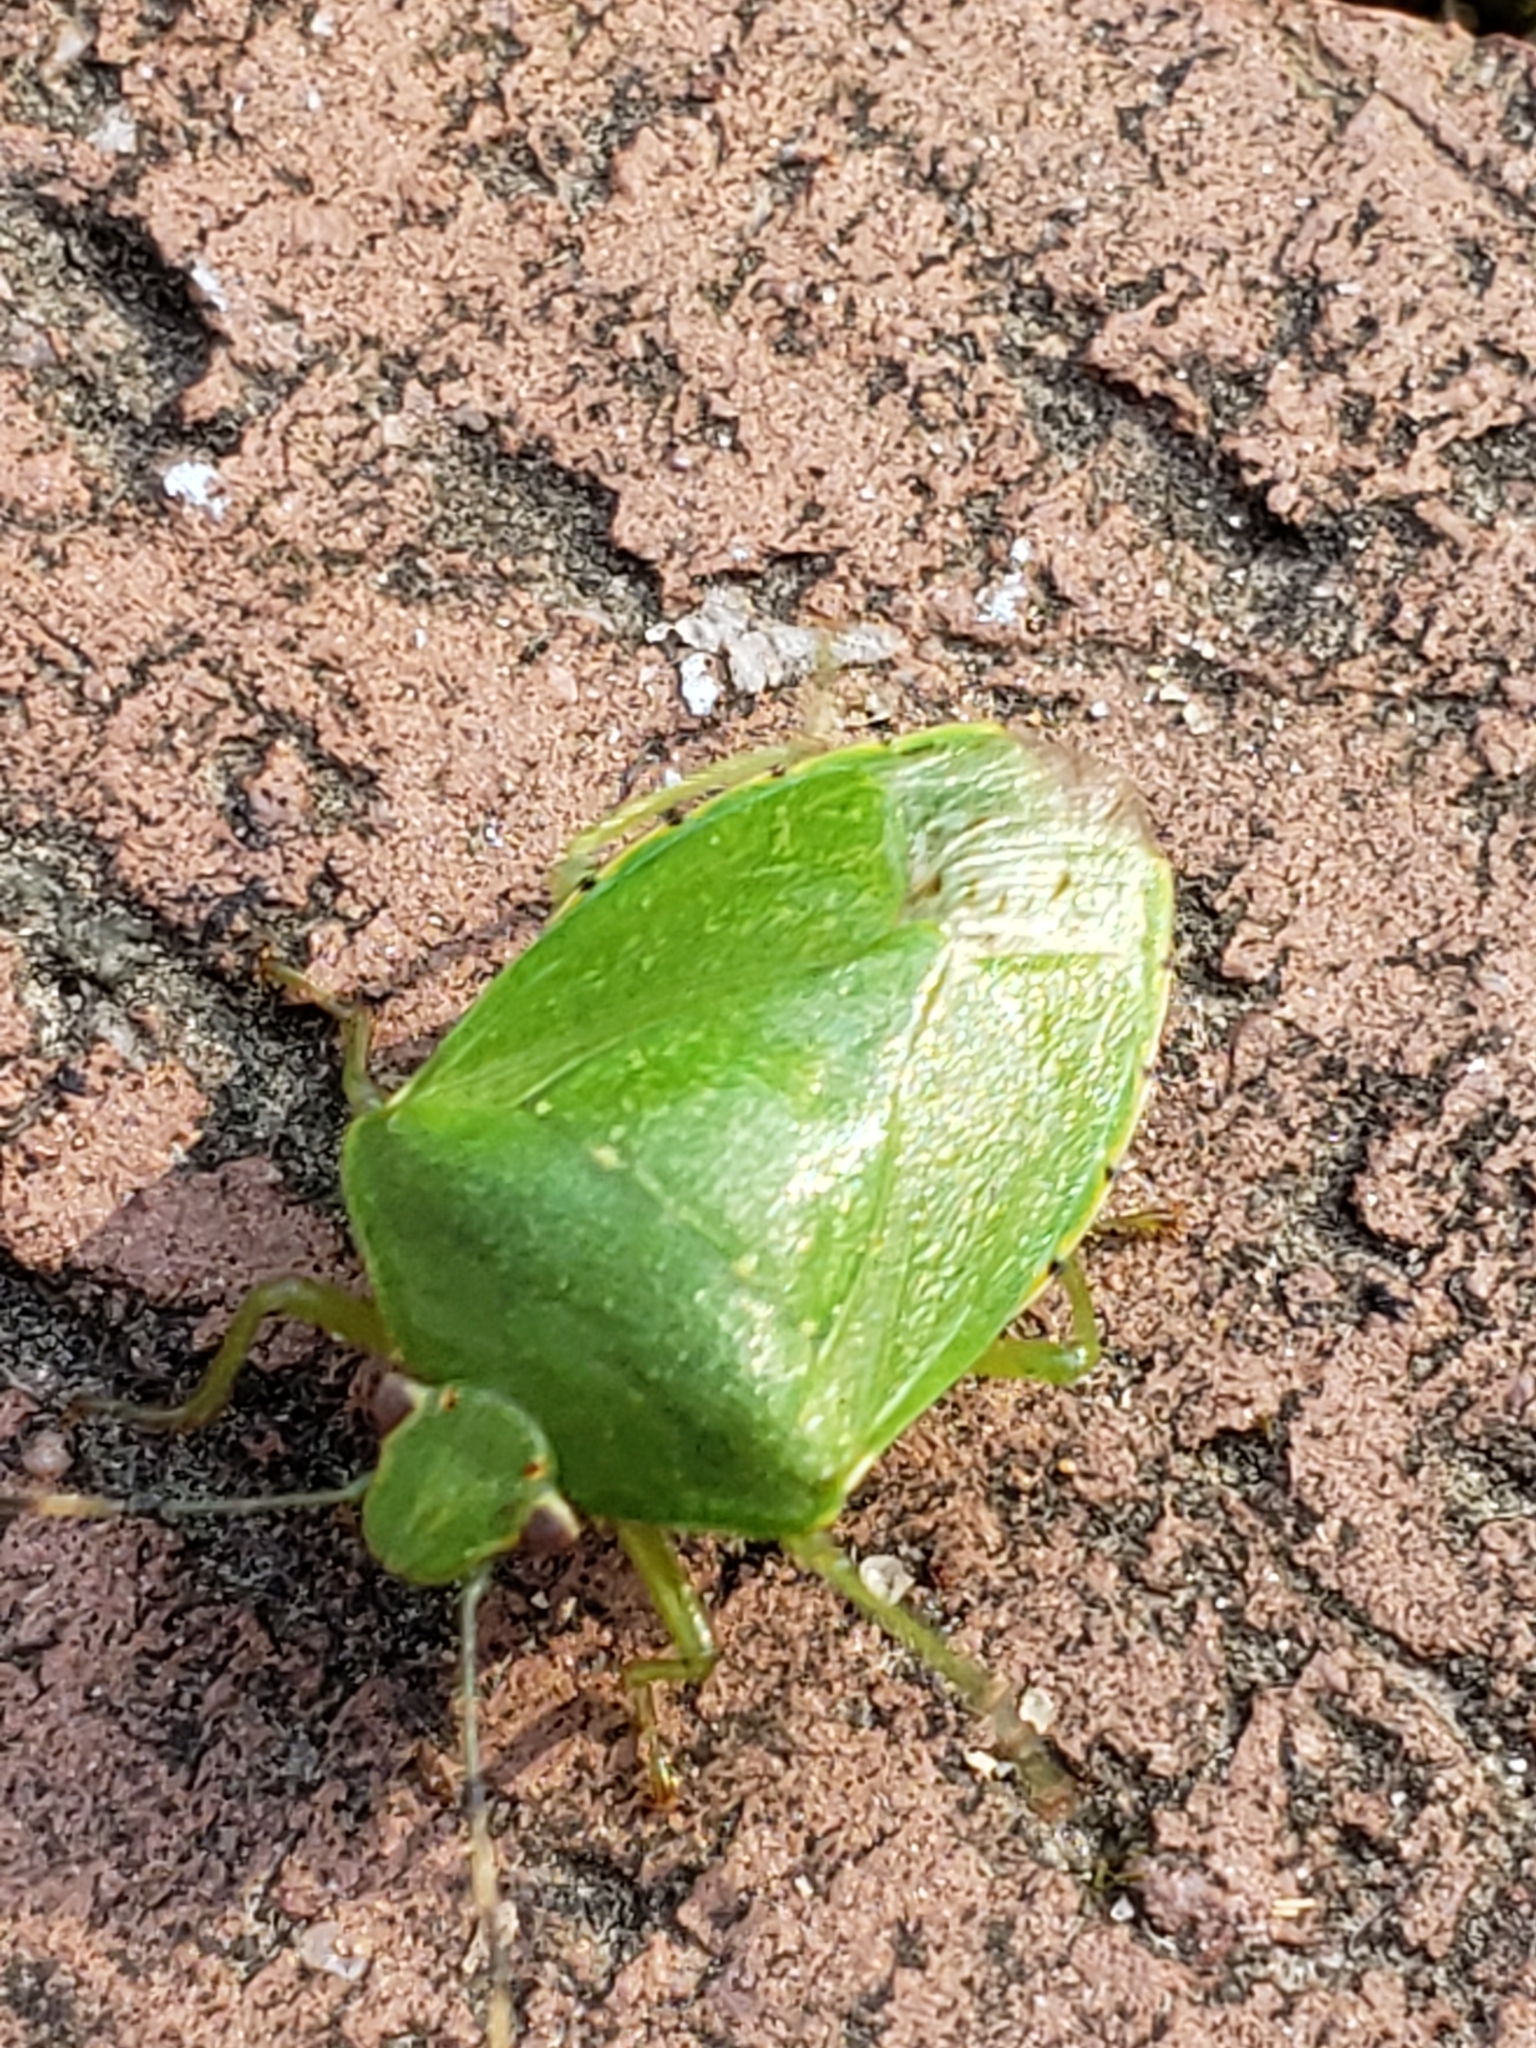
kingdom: Animalia
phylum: Arthropoda
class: Insecta
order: Hemiptera
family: Pentatomidae
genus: Chinavia
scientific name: Chinavia hilaris
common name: Green stink bug
